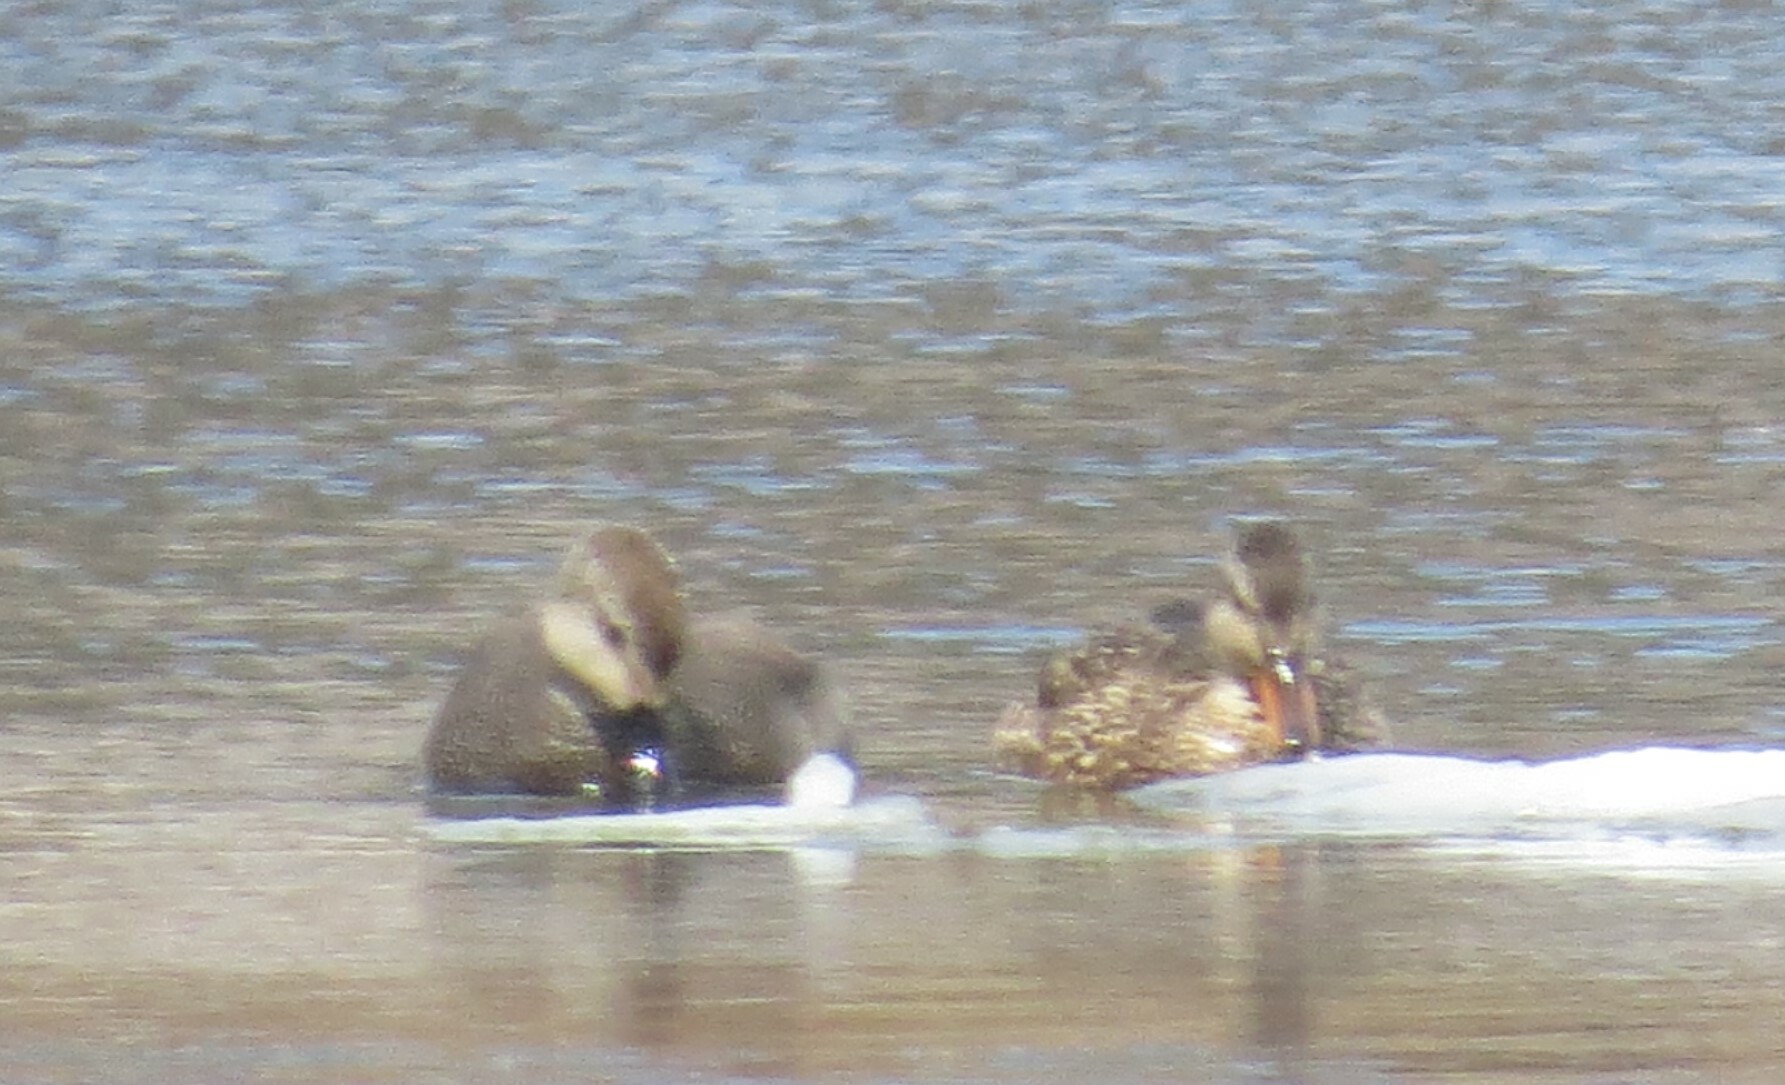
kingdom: Animalia
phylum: Chordata
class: Aves
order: Anseriformes
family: Anatidae
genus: Mareca
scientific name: Mareca strepera
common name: Gadwall
